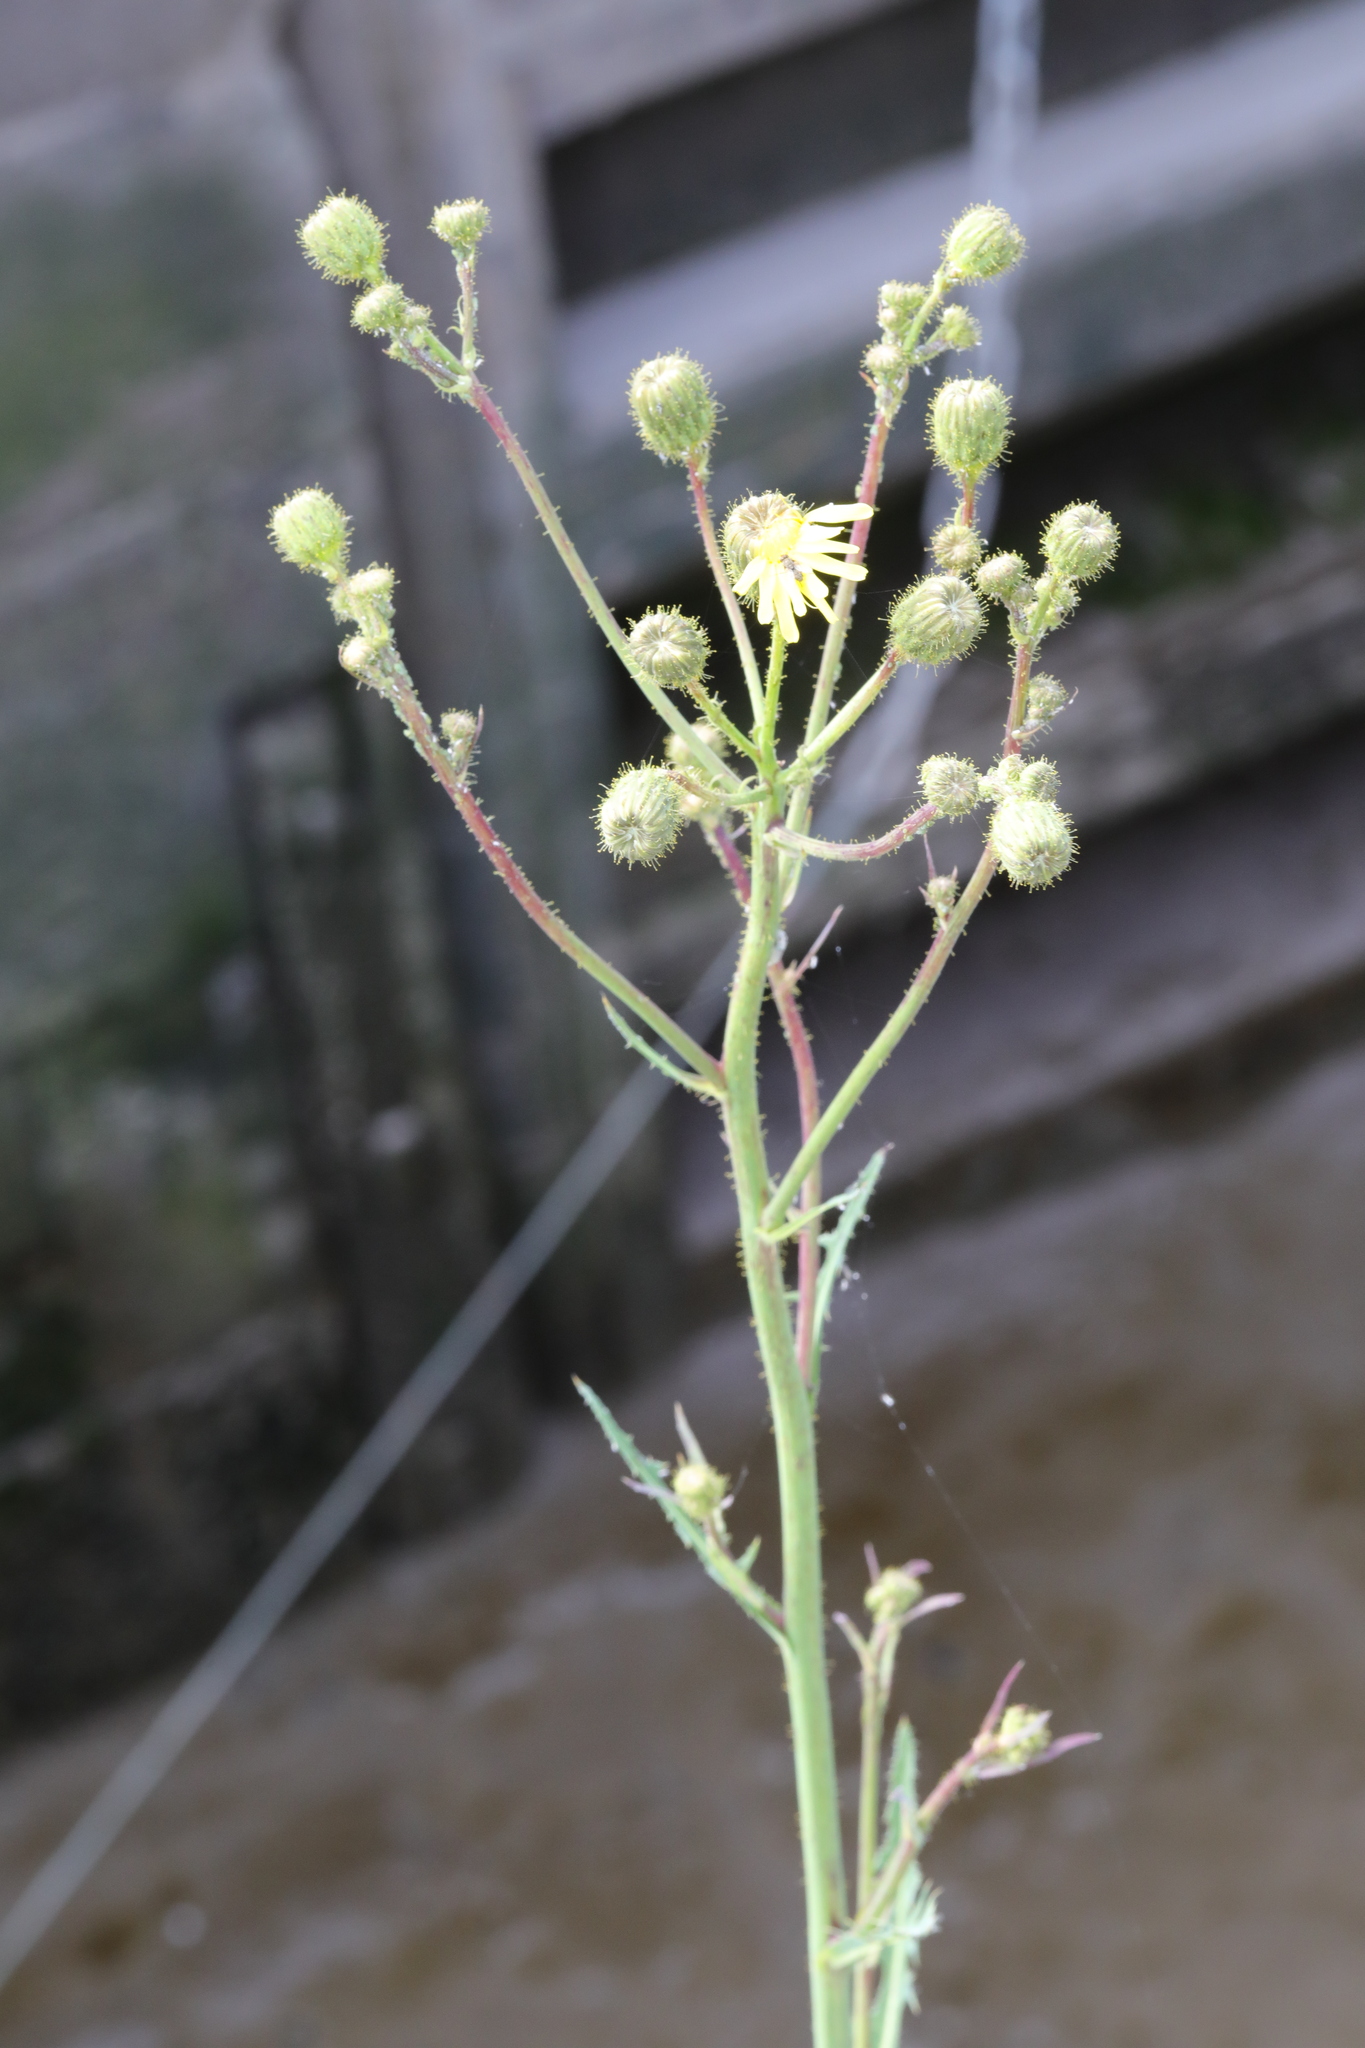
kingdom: Plantae
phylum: Tracheophyta
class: Magnoliopsida
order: Asterales
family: Asteraceae
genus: Sonchus
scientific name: Sonchus arvensis
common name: Perennial sow-thistle
